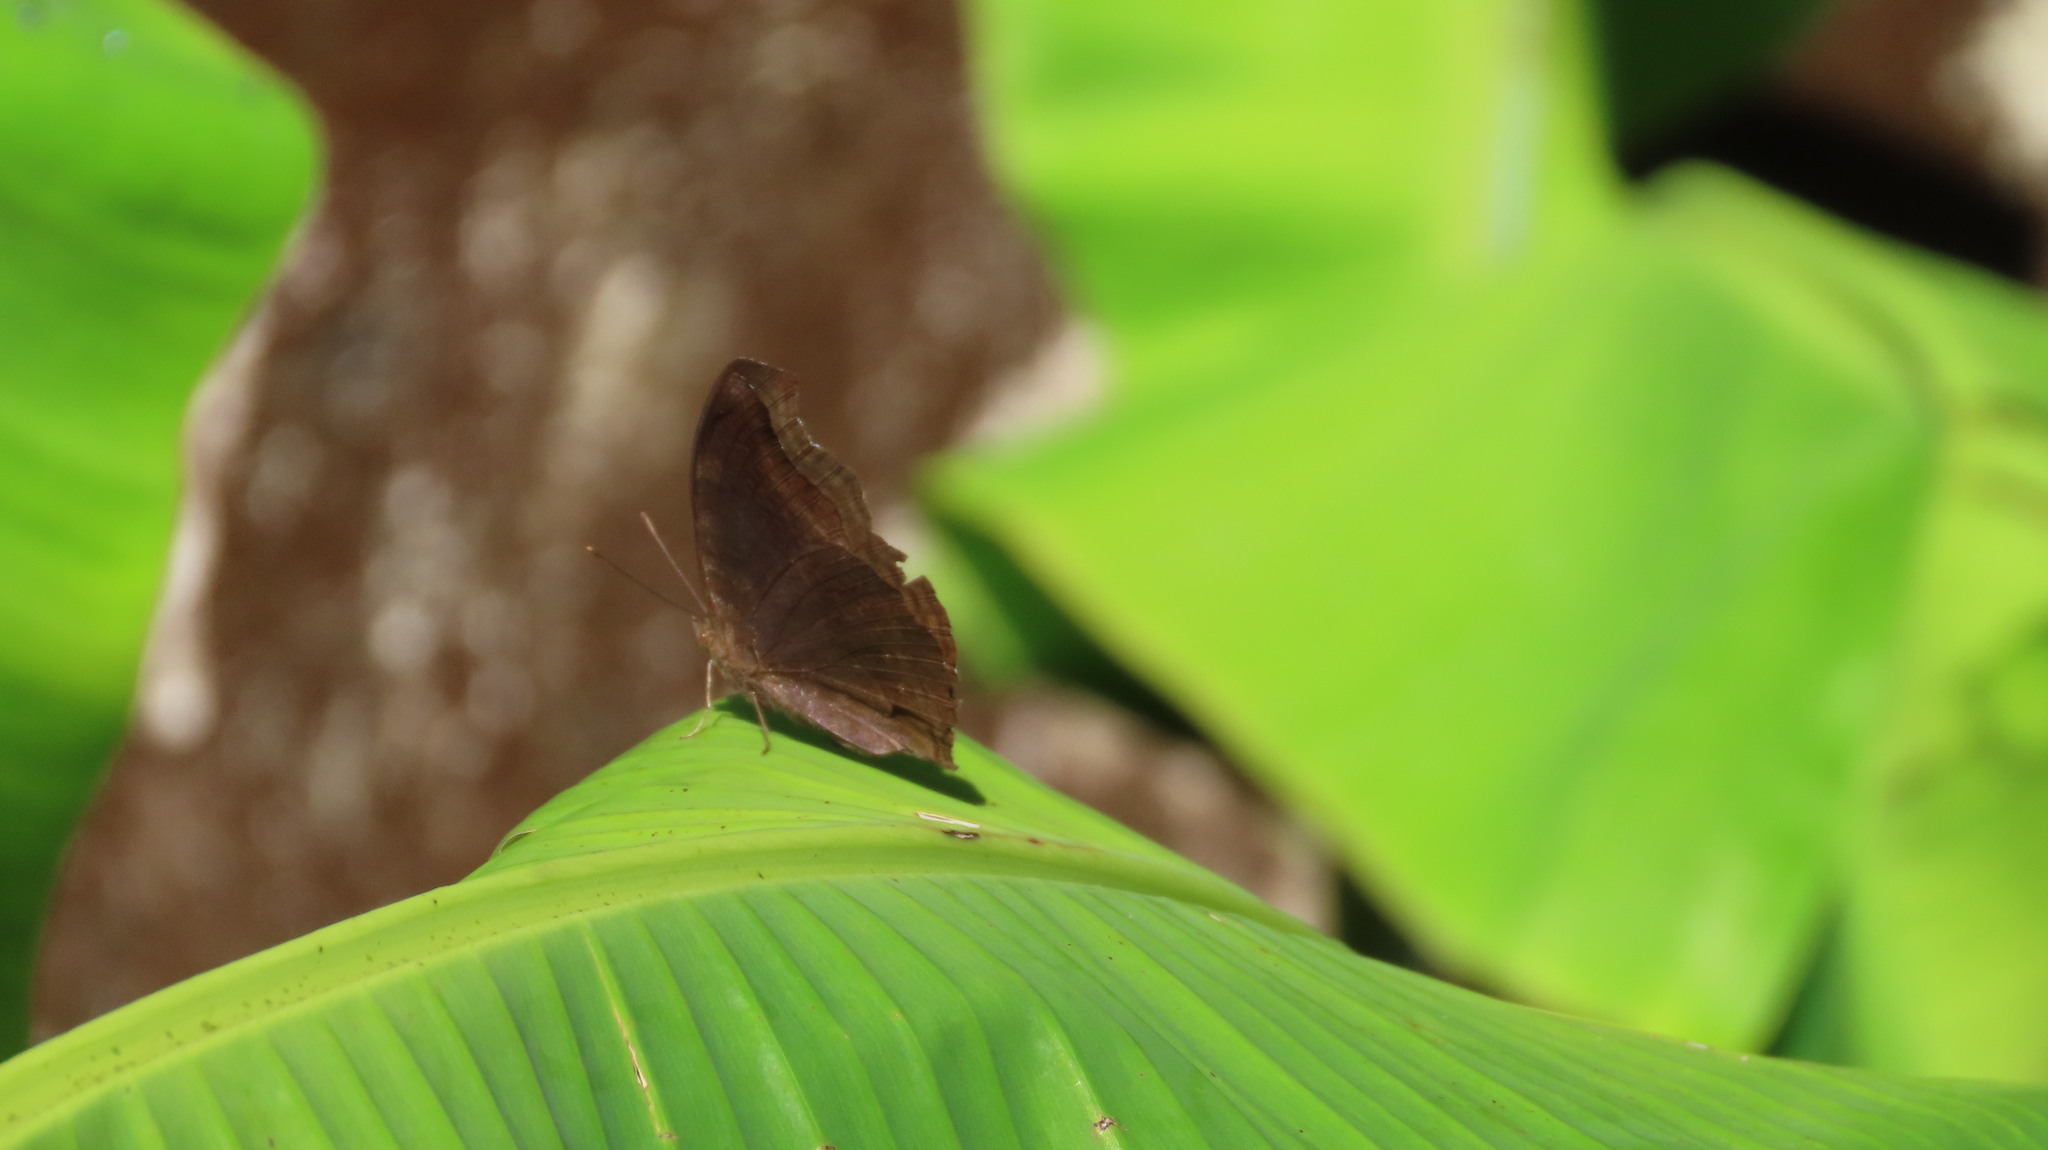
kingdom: Animalia
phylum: Arthropoda
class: Insecta
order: Lepidoptera
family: Nymphalidae
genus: Junonia
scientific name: Junonia iphita
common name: Chocolate pansy
